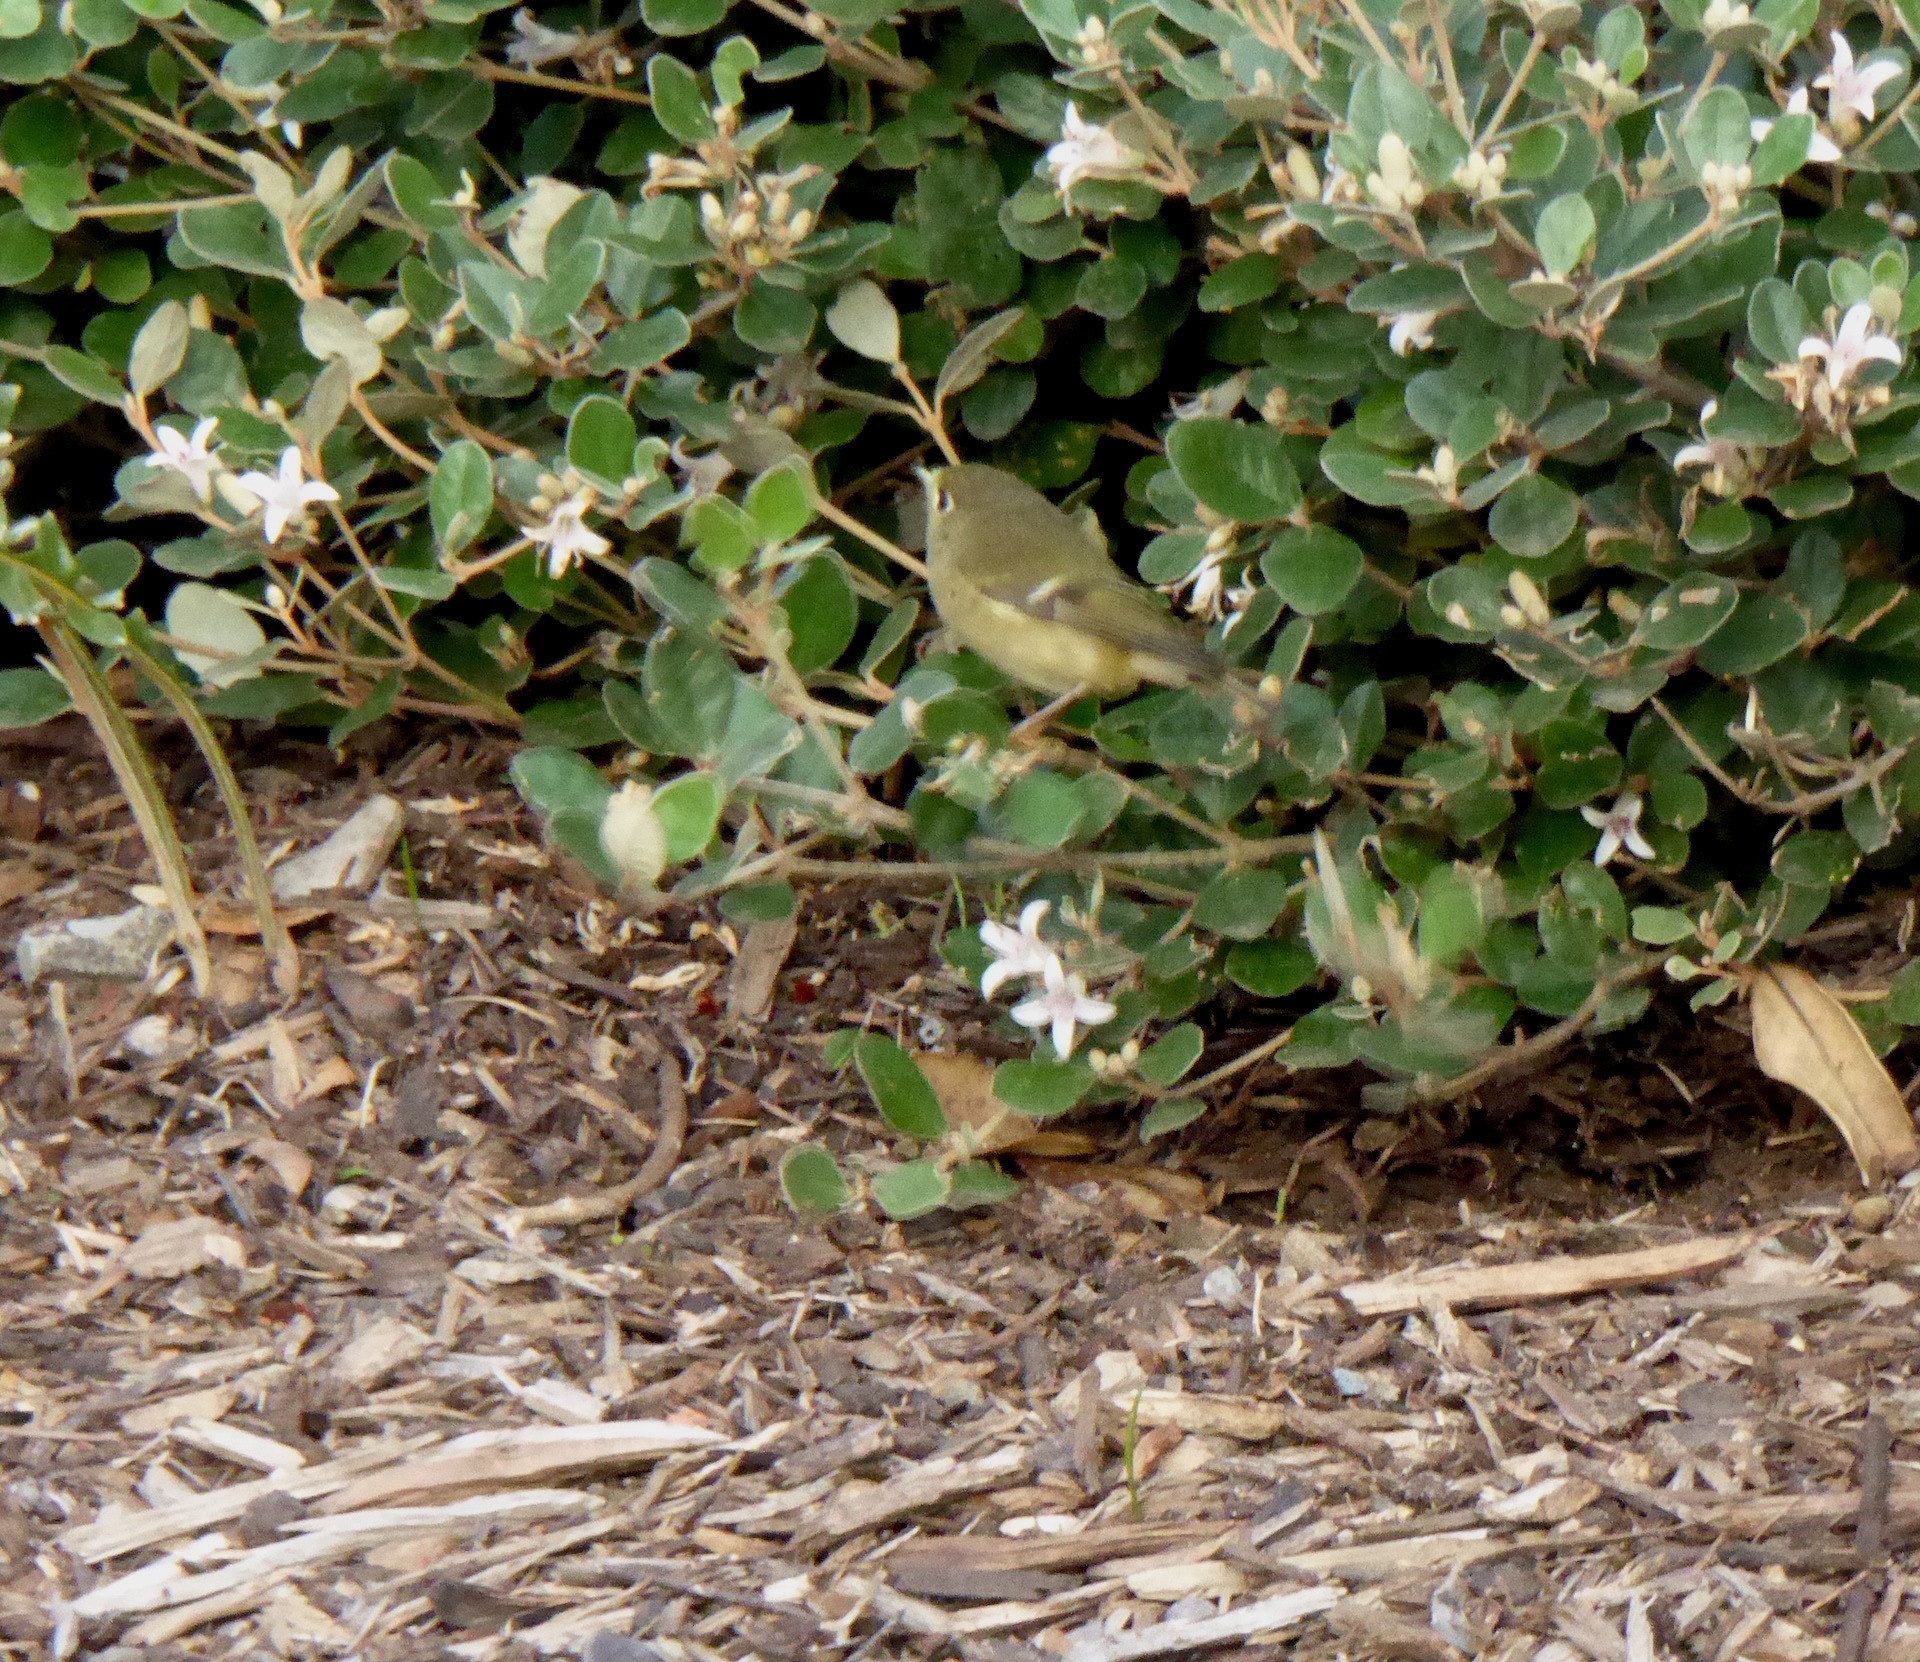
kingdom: Animalia
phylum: Chordata
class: Aves
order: Passeriformes
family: Regulidae
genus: Regulus
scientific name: Regulus calendula
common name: Ruby-crowned kinglet
